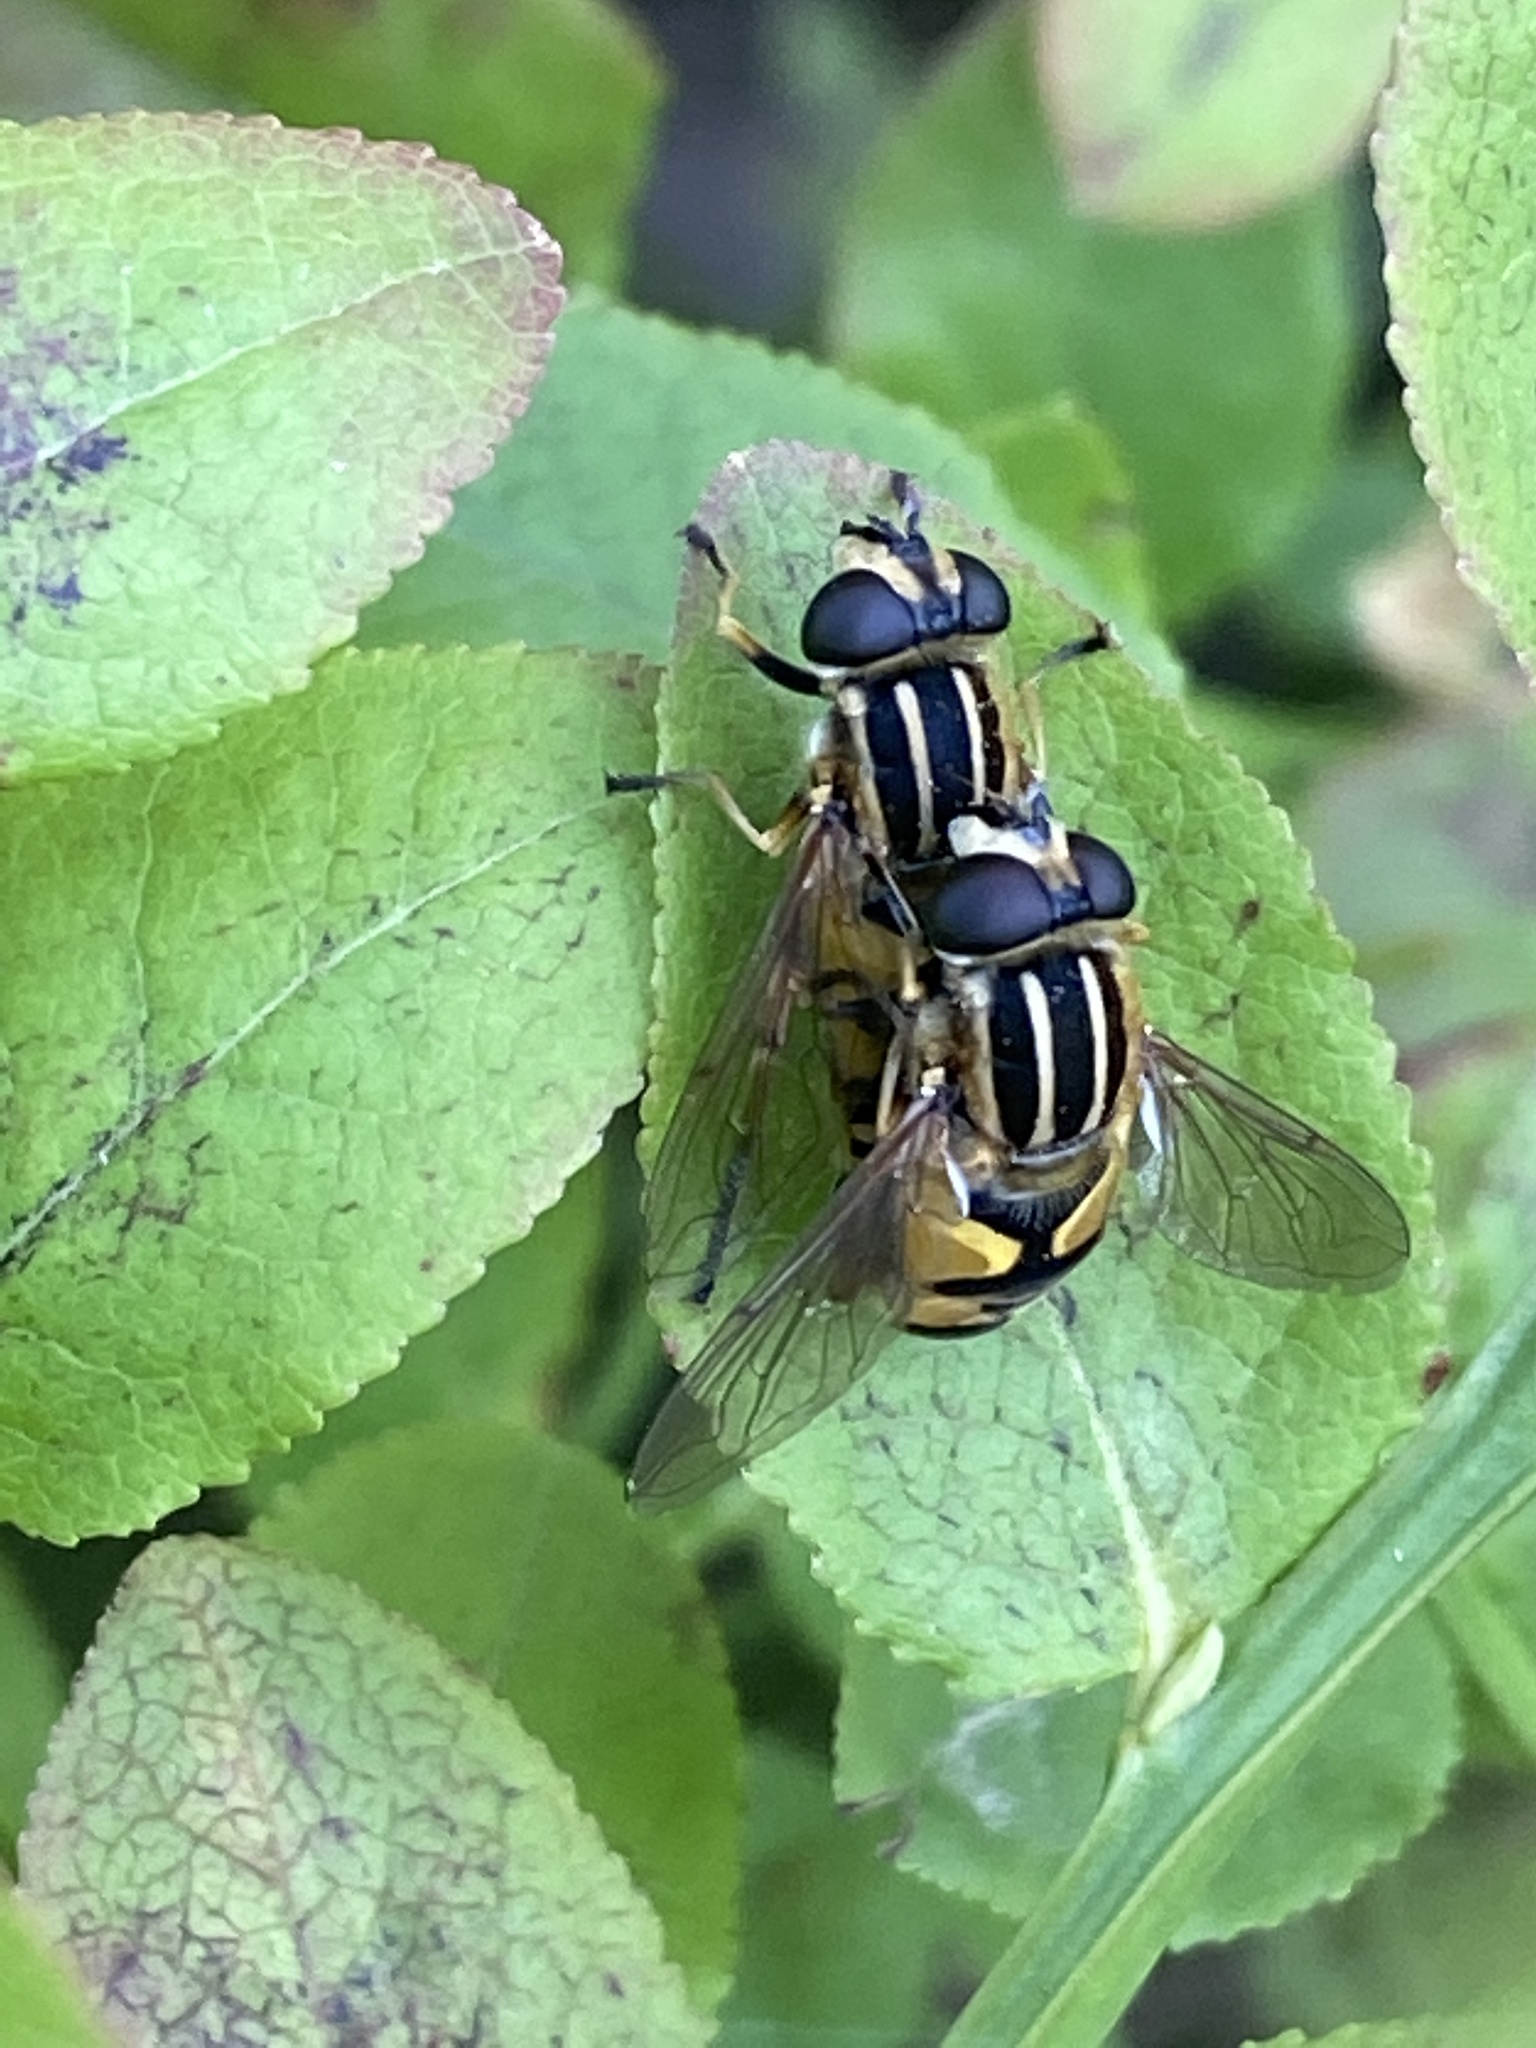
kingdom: Animalia
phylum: Arthropoda
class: Insecta
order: Diptera
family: Syrphidae
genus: Helophilus
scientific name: Helophilus pendulus
